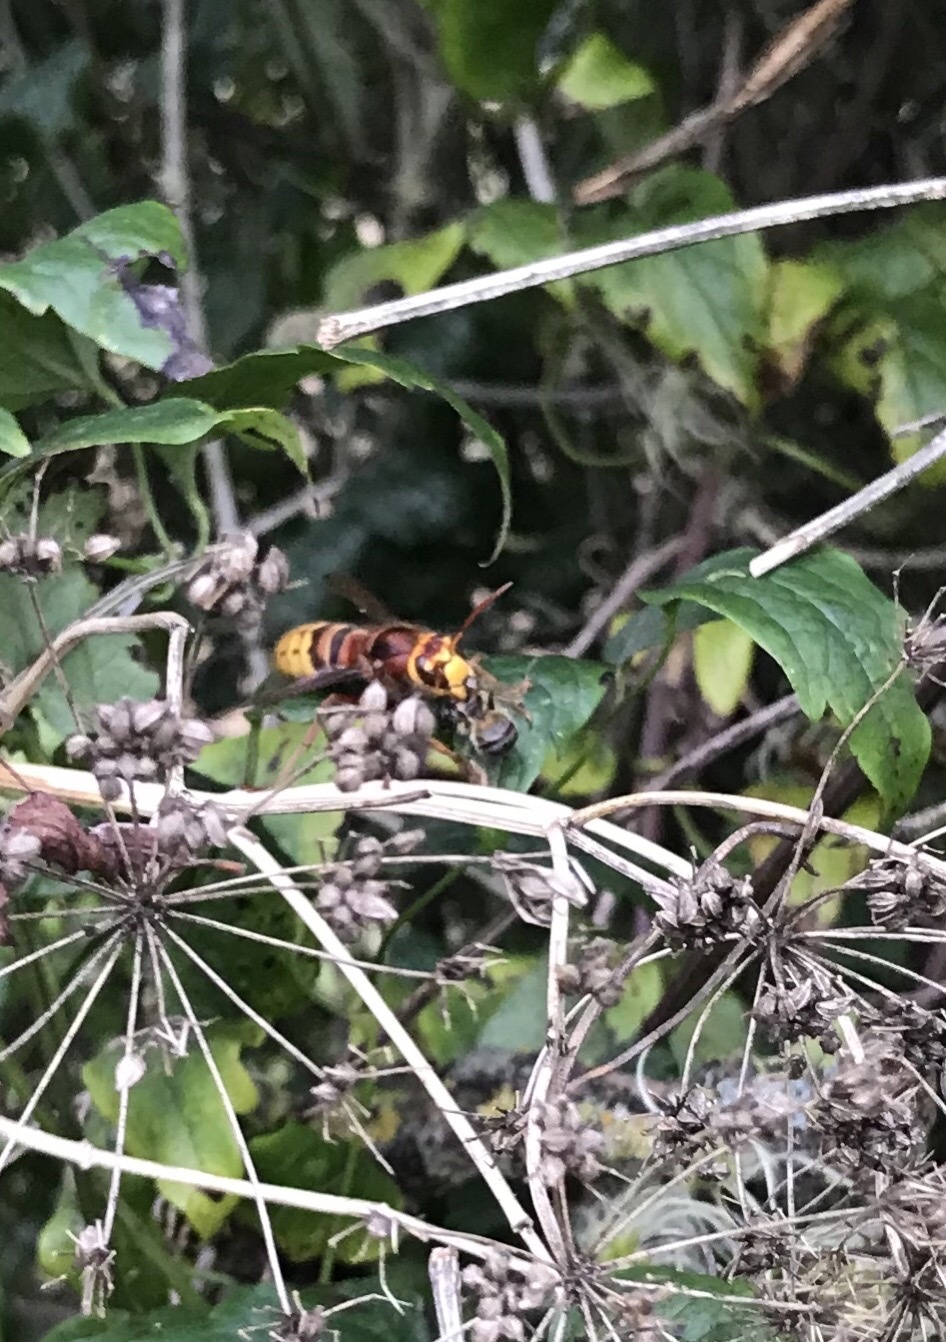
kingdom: Animalia
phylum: Arthropoda
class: Insecta
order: Hymenoptera
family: Vespidae
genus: Vespa
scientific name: Vespa crabro
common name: Hornet
